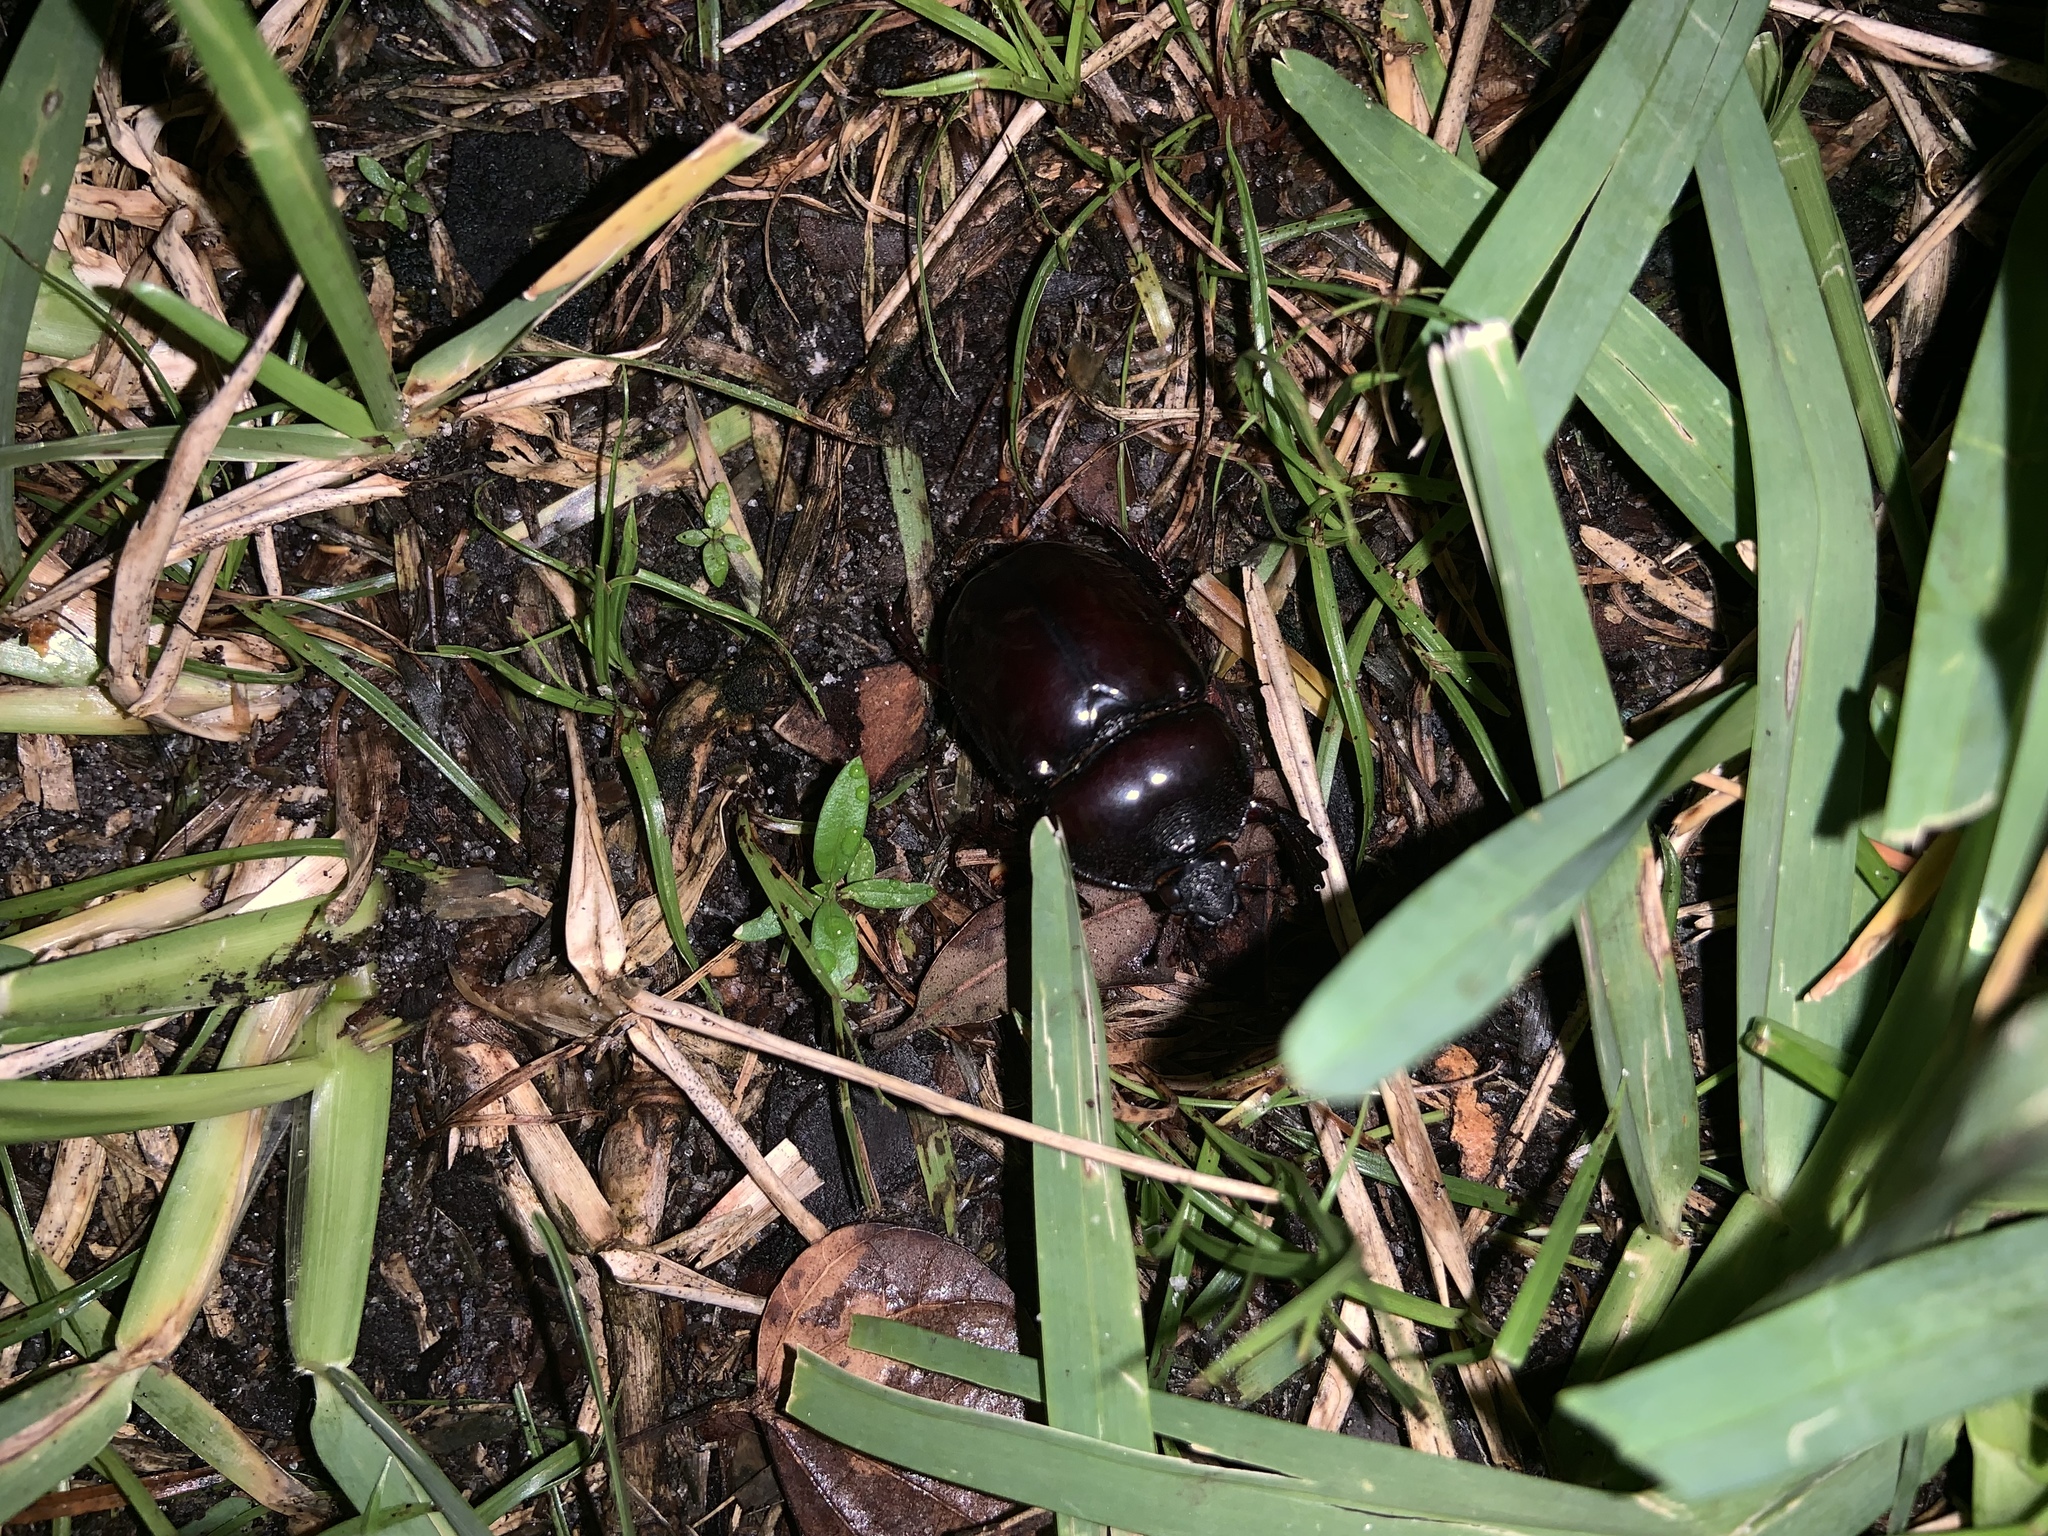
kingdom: Animalia
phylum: Arthropoda
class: Insecta
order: Coleoptera
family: Scarabaeidae
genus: Strategus
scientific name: Strategus antaeus
